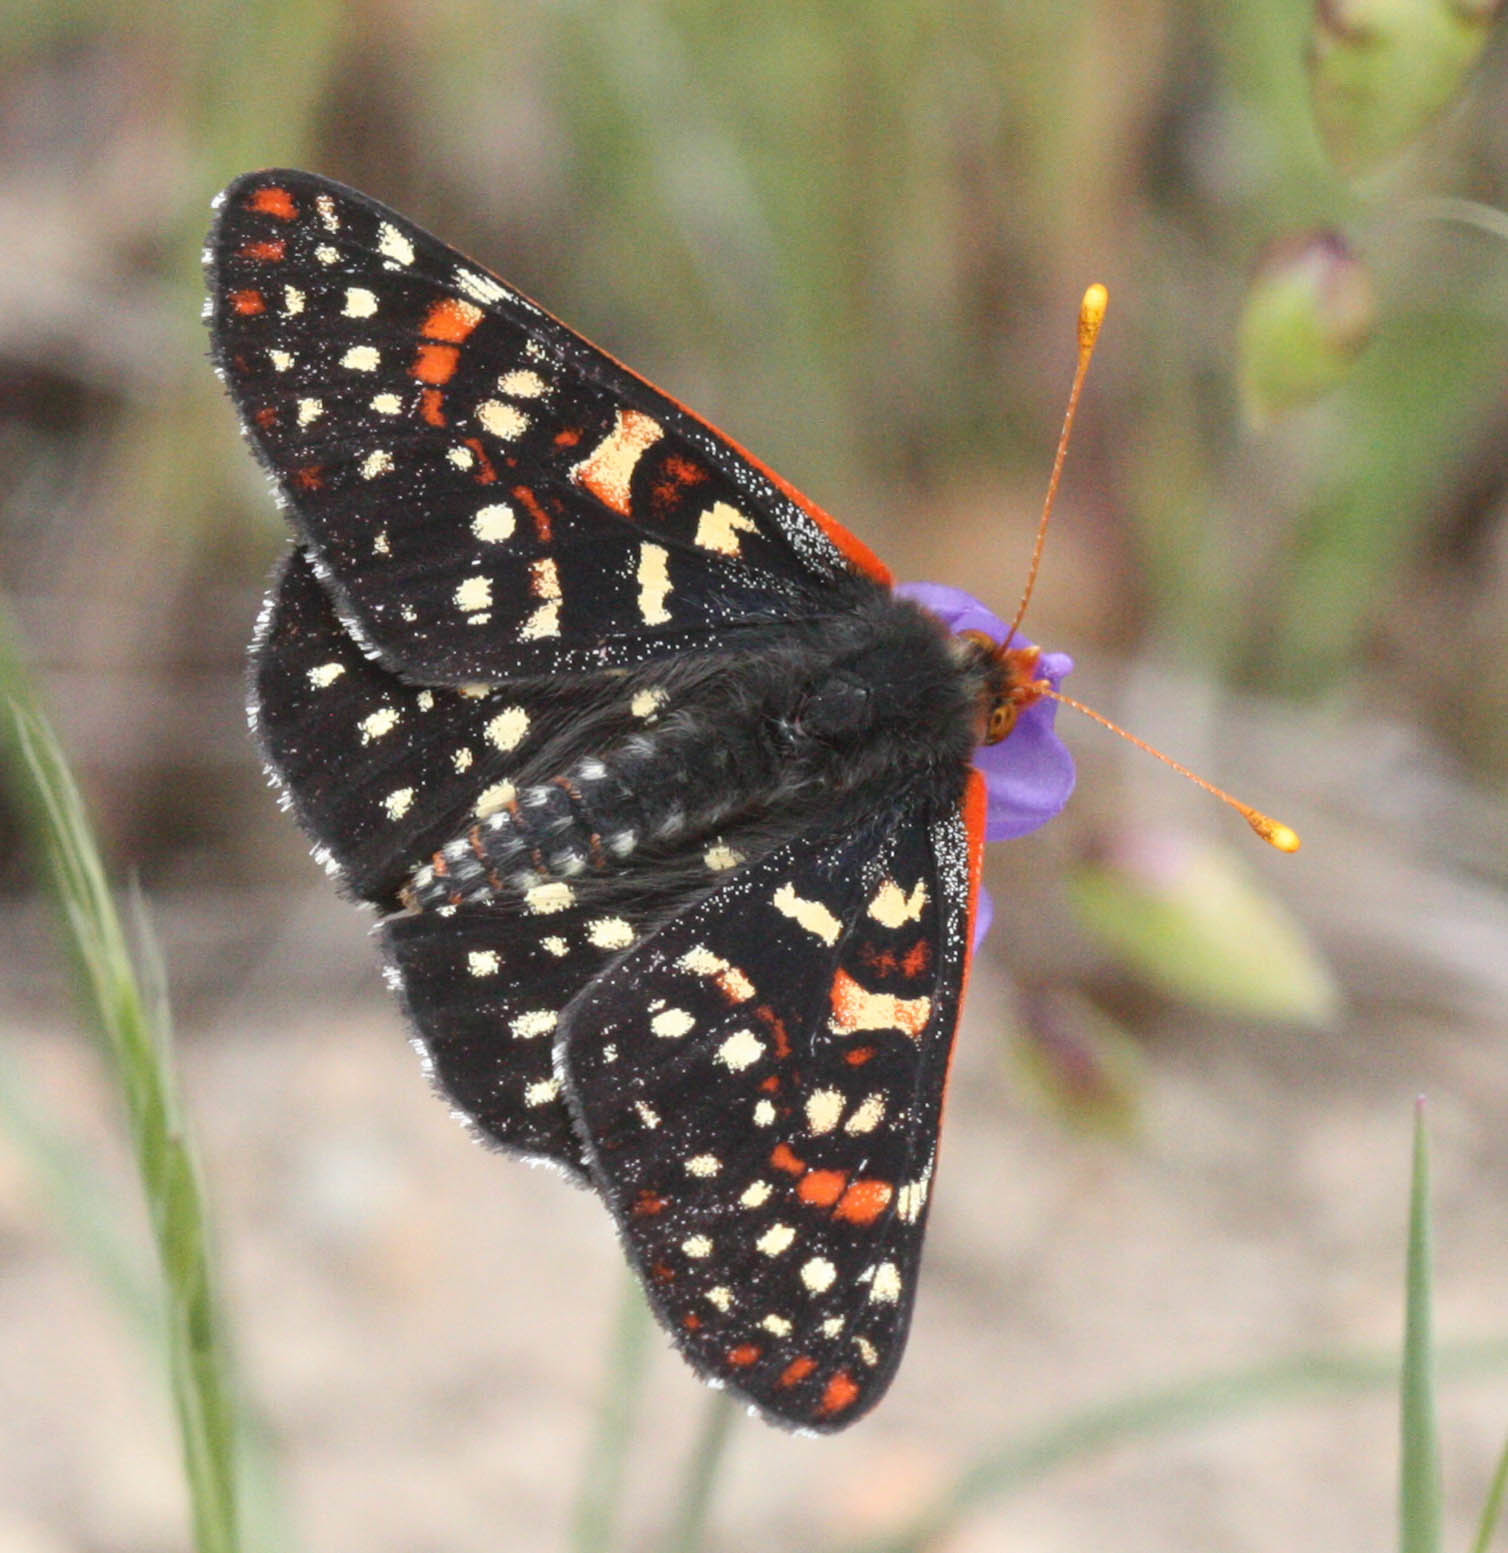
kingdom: Animalia
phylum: Arthropoda
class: Insecta
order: Lepidoptera
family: Nymphalidae
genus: Occidryas
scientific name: Occidryas chalcedona
